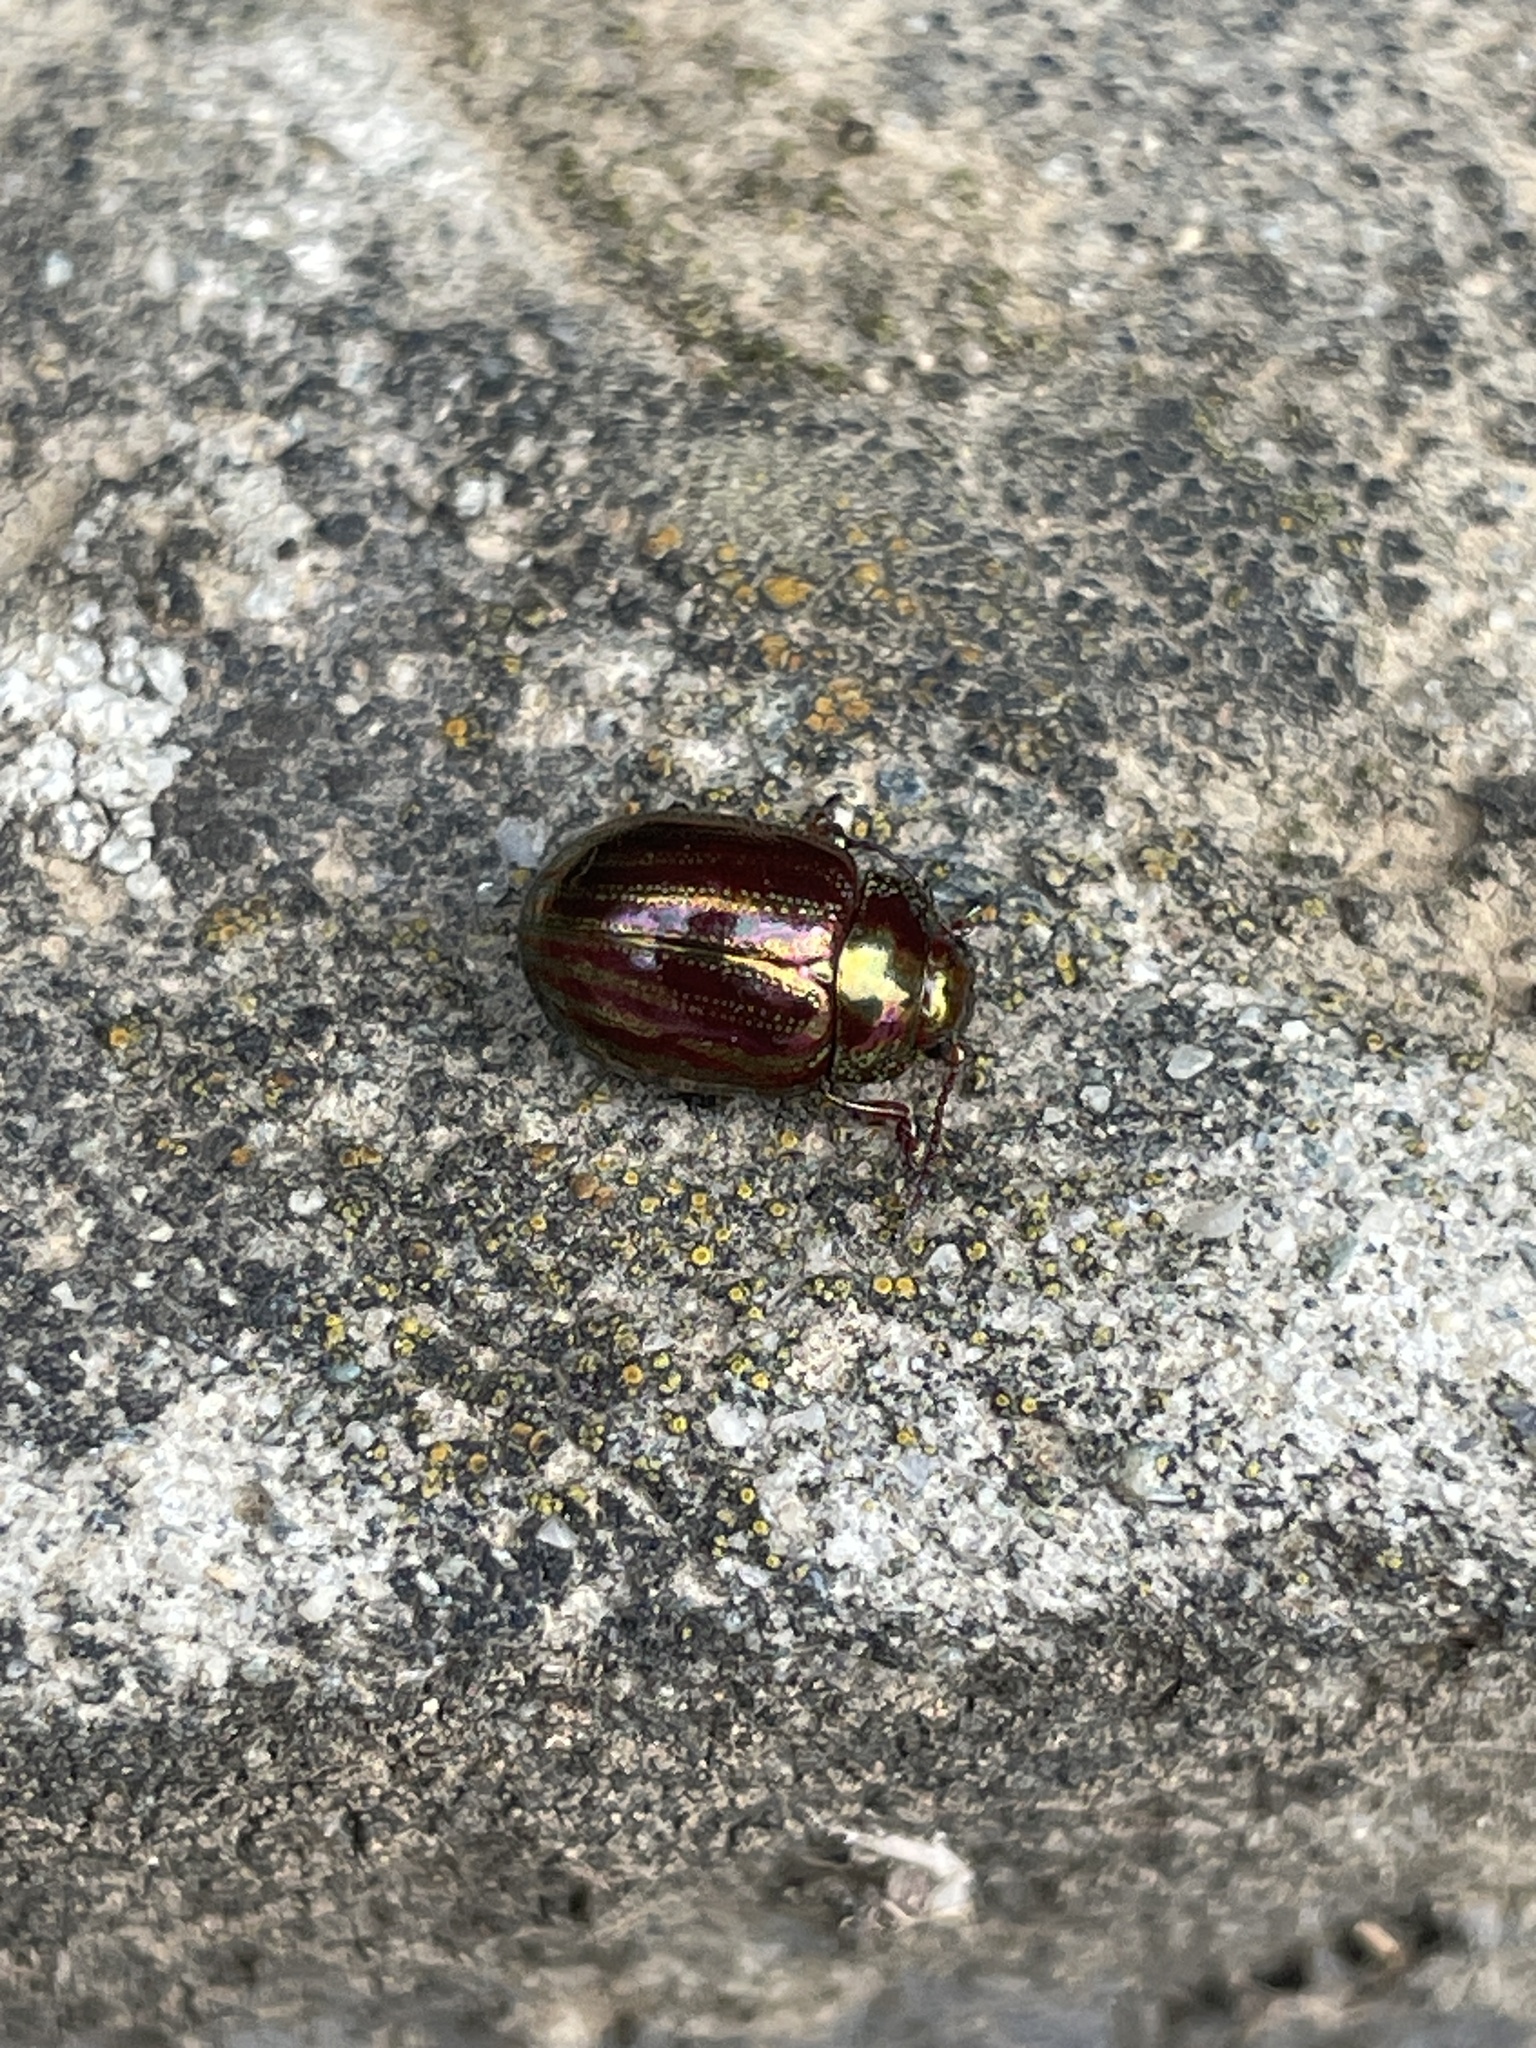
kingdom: Animalia
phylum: Arthropoda
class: Insecta
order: Coleoptera
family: Chrysomelidae
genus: Chrysolina
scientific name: Chrysolina americana
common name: Rosemary beetle
